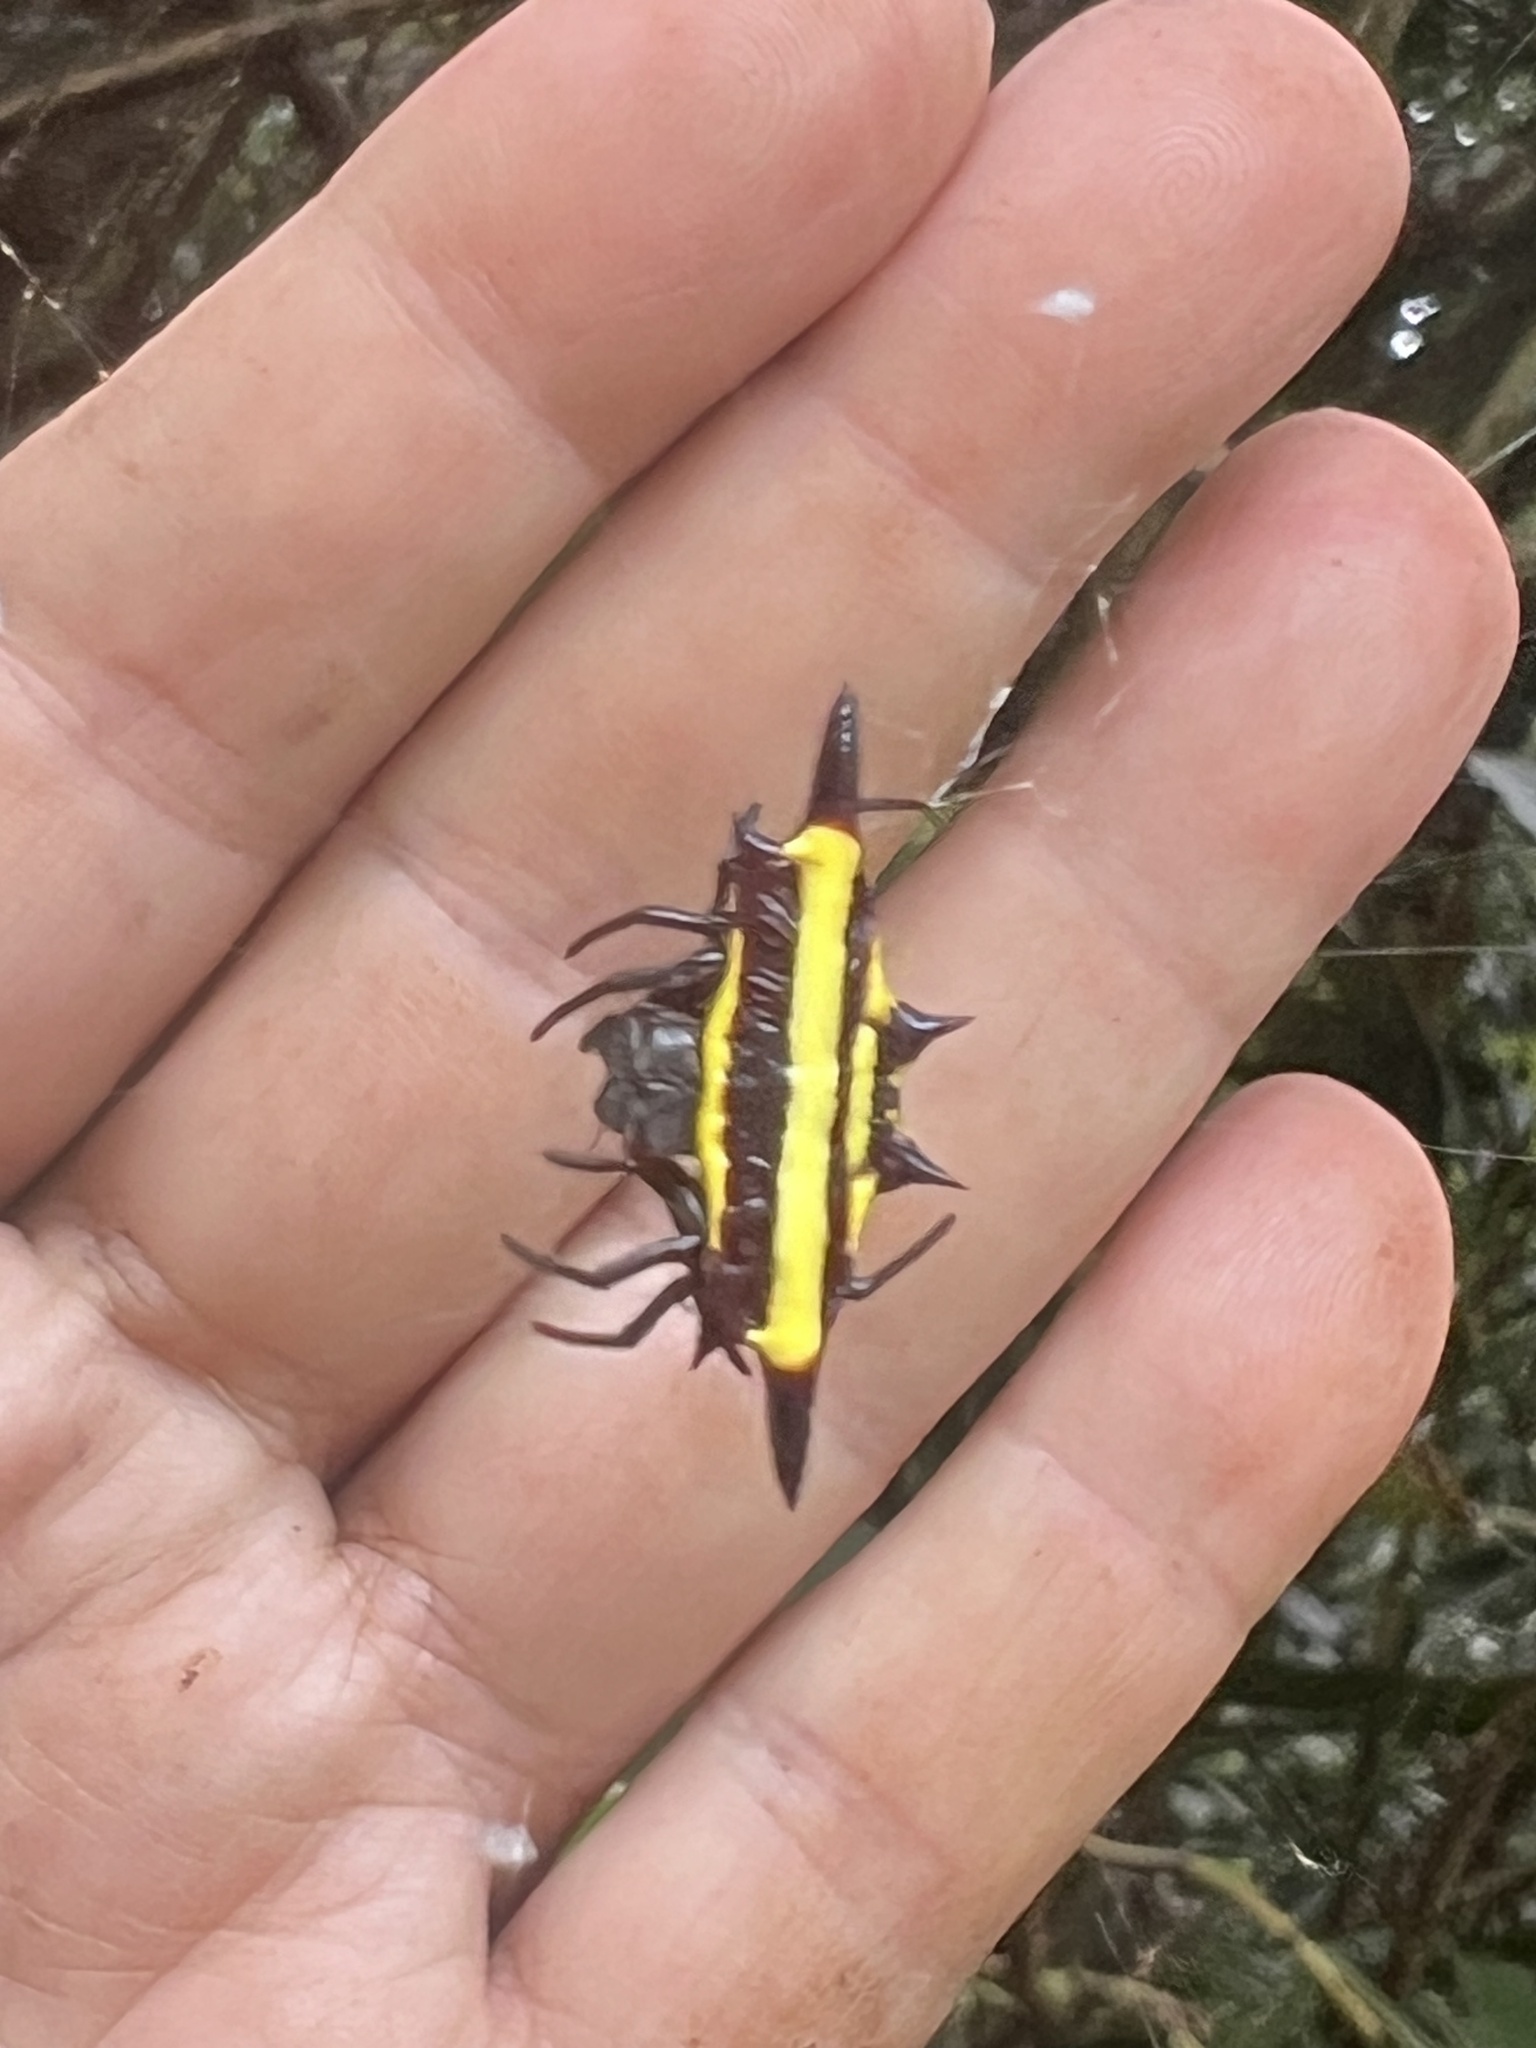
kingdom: Animalia
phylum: Arthropoda
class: Arachnida
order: Araneae
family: Araneidae
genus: Gasteracantha
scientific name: Gasteracantha fornicata
